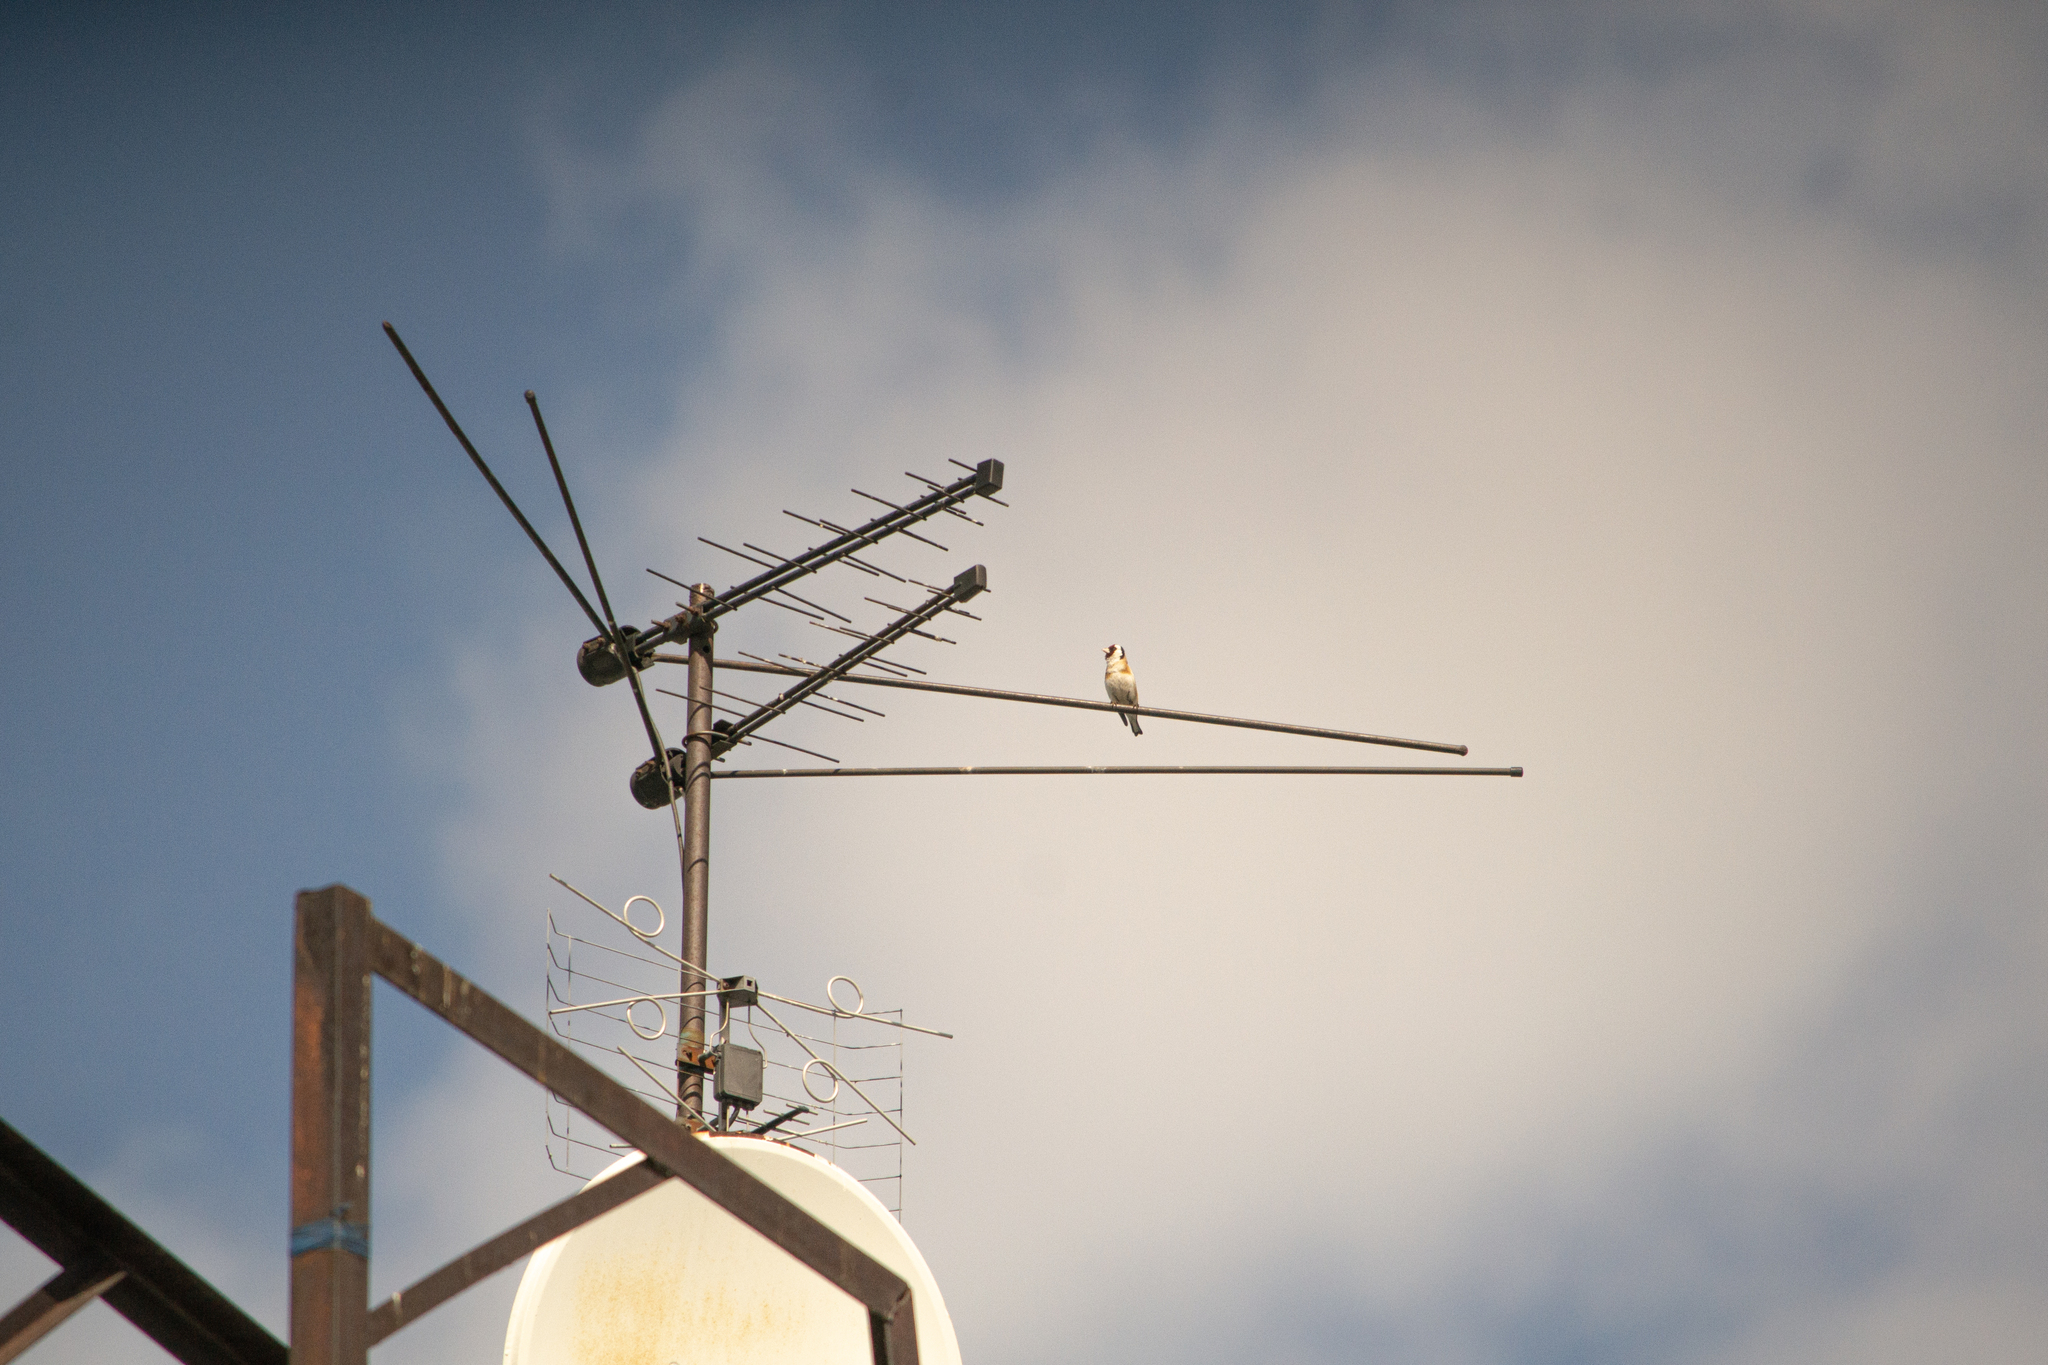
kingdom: Animalia
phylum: Chordata
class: Aves
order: Passeriformes
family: Fringillidae
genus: Carduelis
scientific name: Carduelis carduelis
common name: European goldfinch
